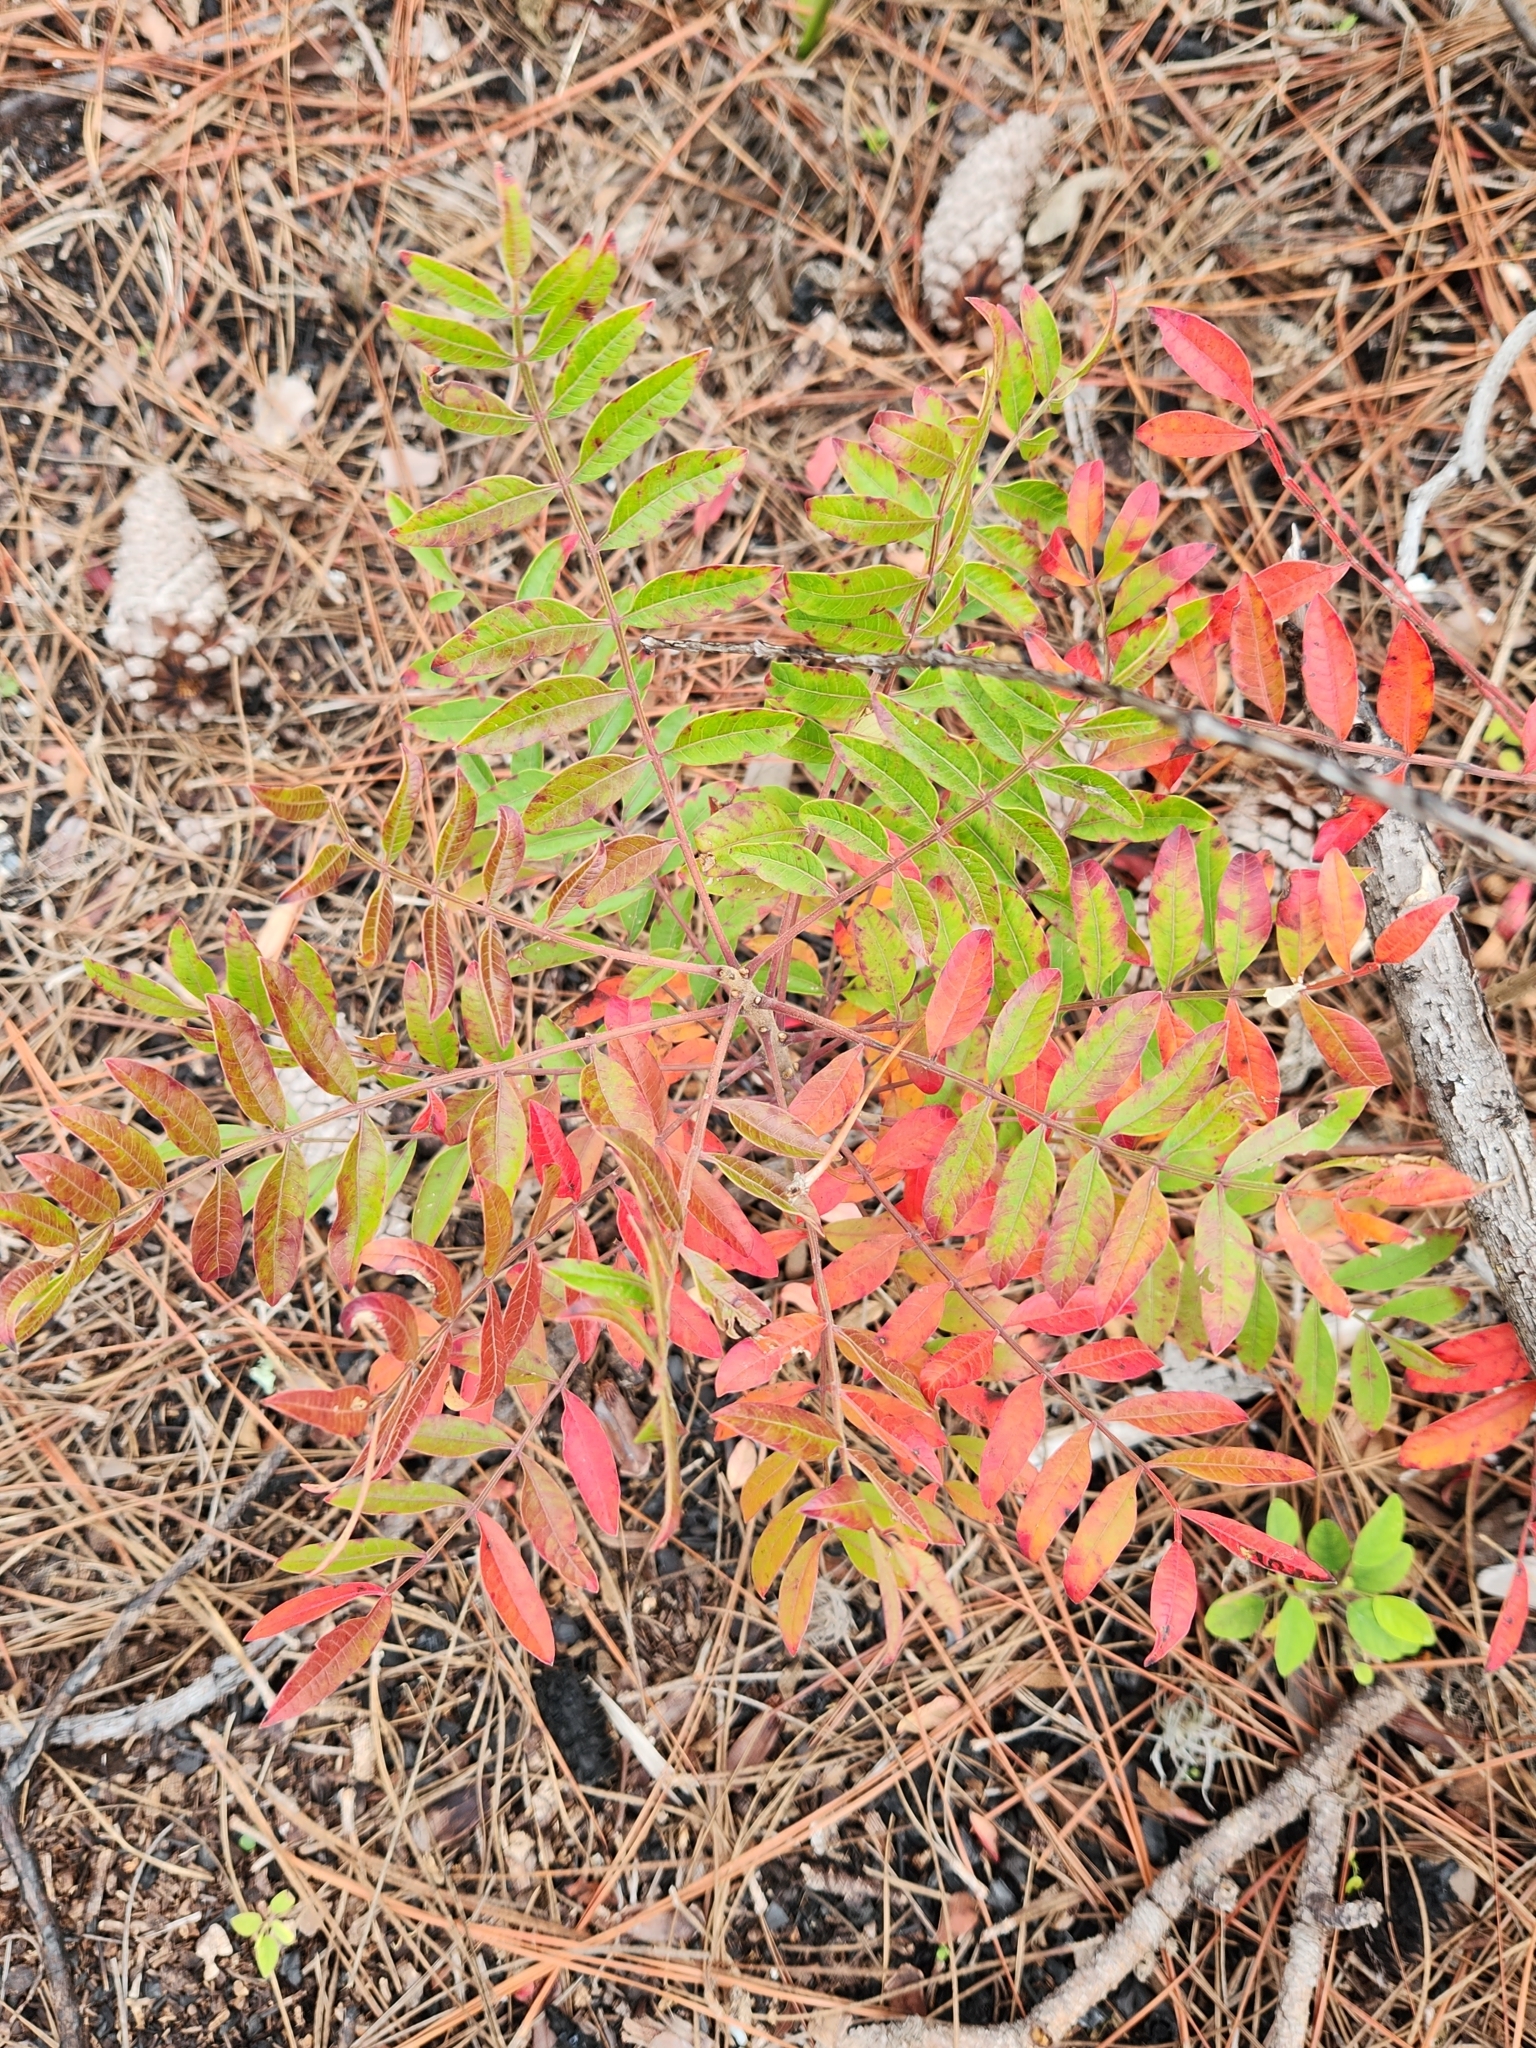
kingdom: Plantae
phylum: Tracheophyta
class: Magnoliopsida
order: Sapindales
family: Anacardiaceae
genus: Rhus
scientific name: Rhus copallina
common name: Shining sumac
